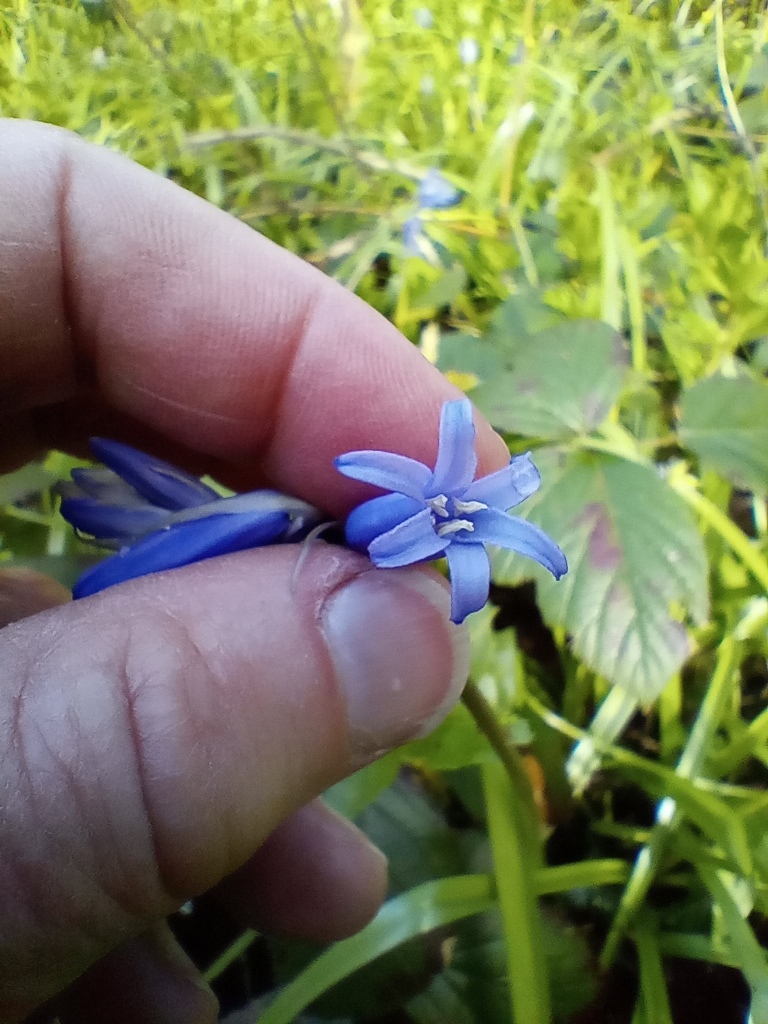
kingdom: Plantae
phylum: Tracheophyta
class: Liliopsida
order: Asparagales
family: Asparagaceae
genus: Hyacinthoides
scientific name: Hyacinthoides non-scripta
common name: Bluebell
